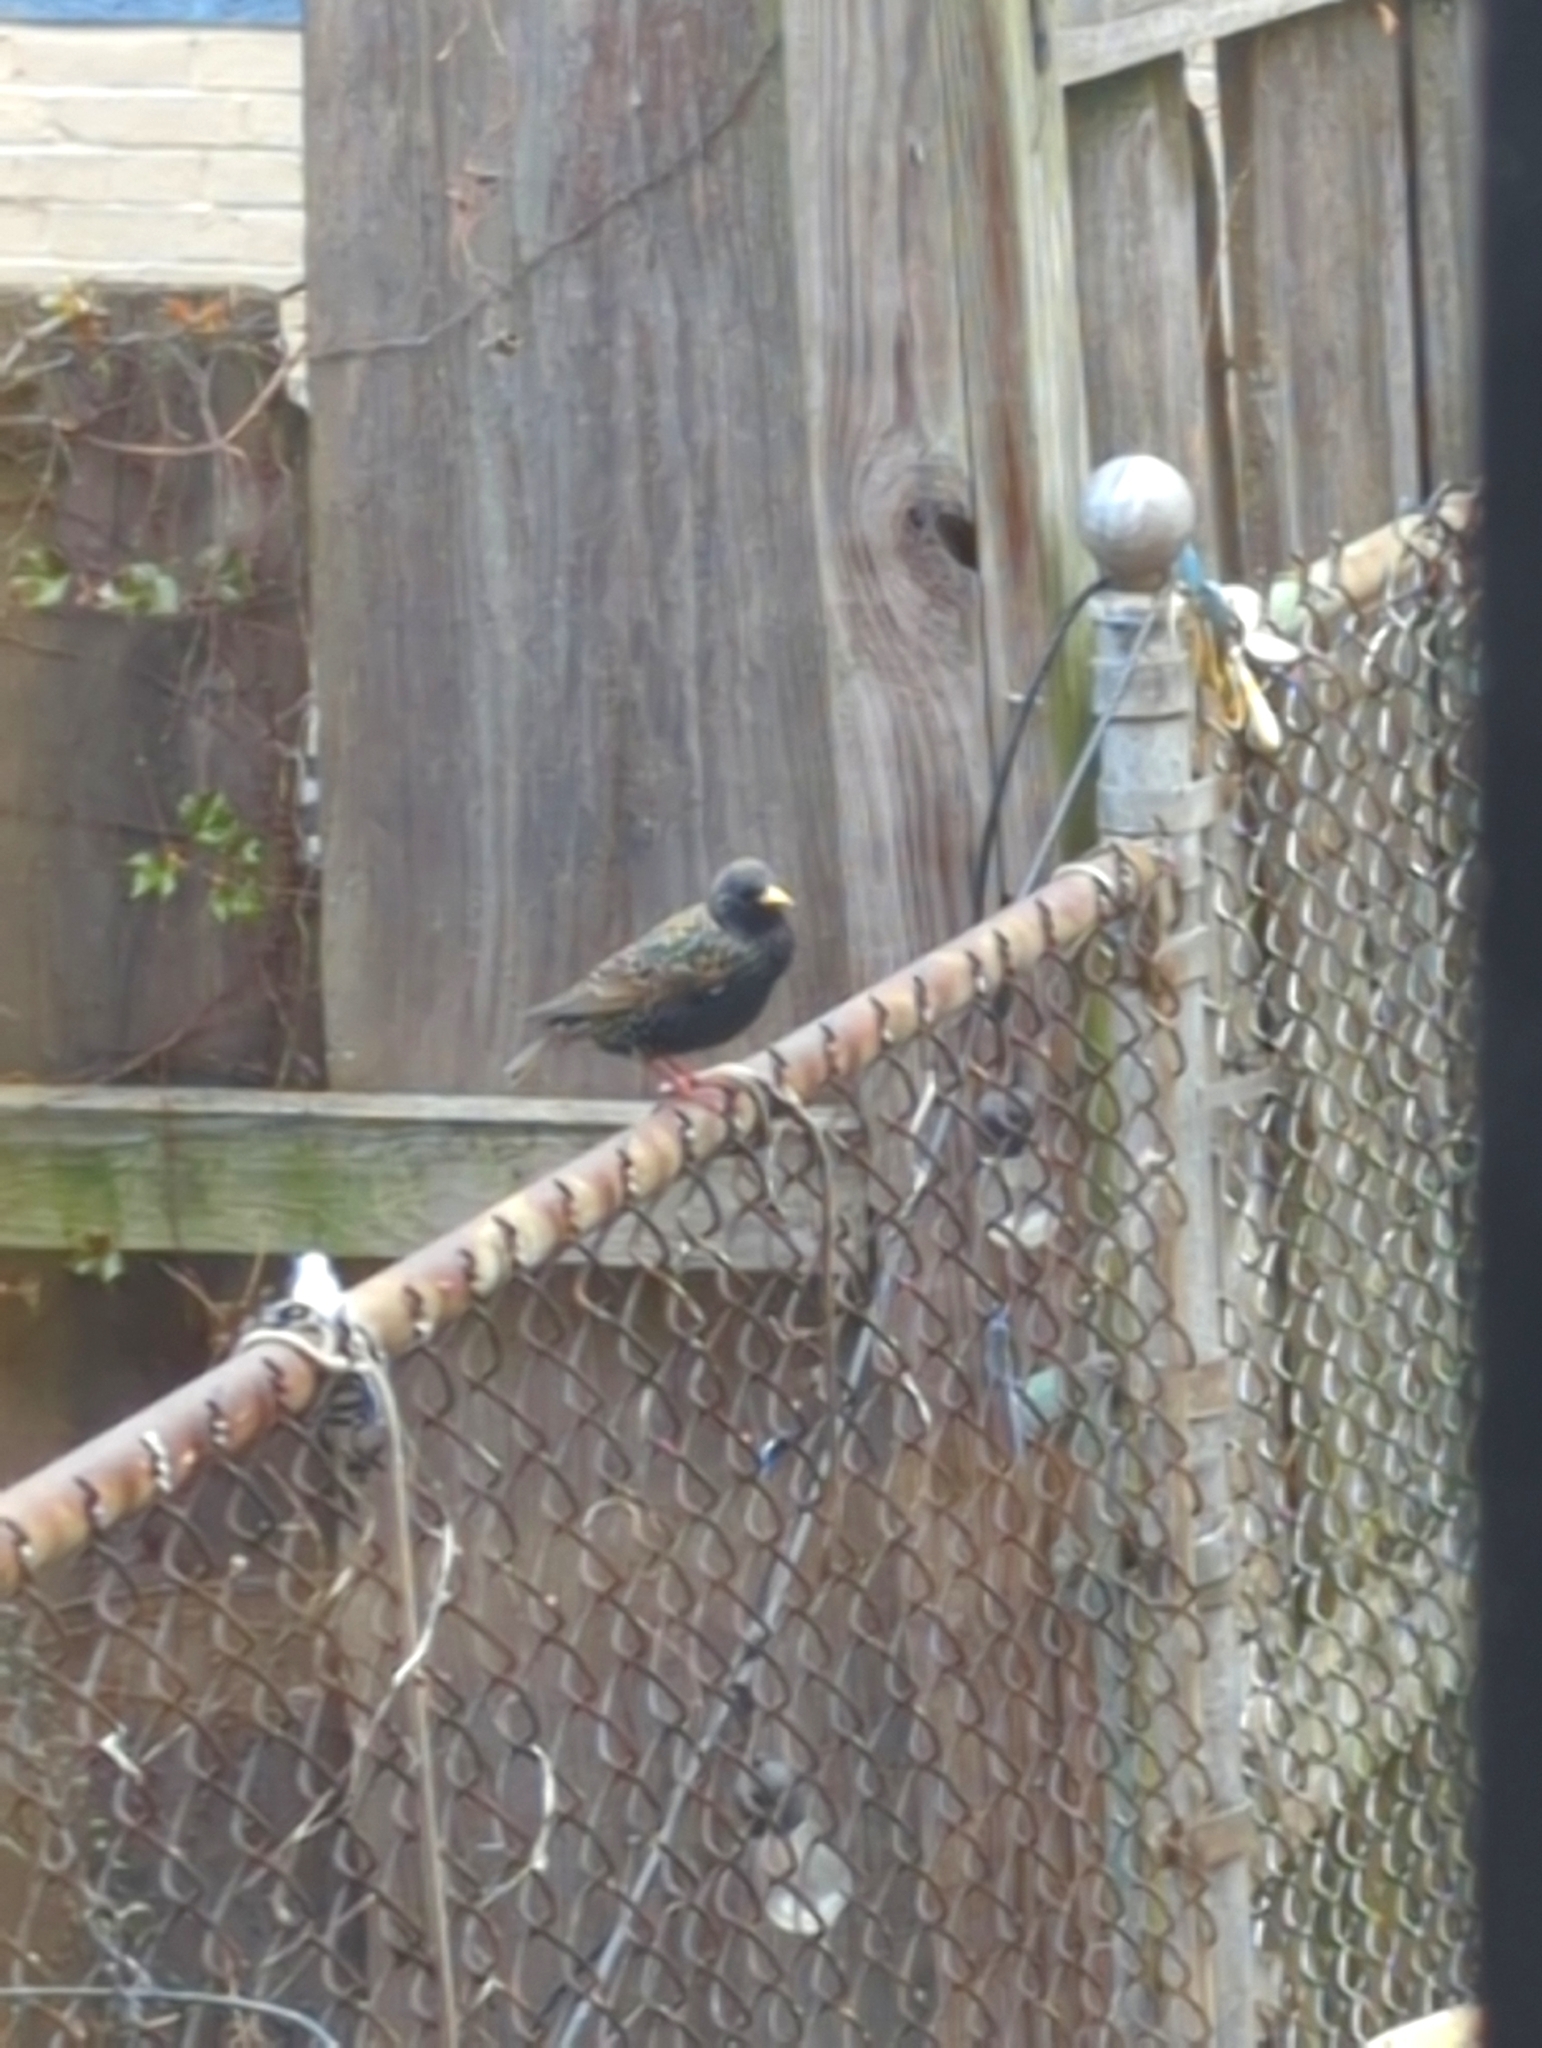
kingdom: Animalia
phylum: Chordata
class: Aves
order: Passeriformes
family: Sturnidae
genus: Sturnus
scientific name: Sturnus vulgaris
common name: Common starling
